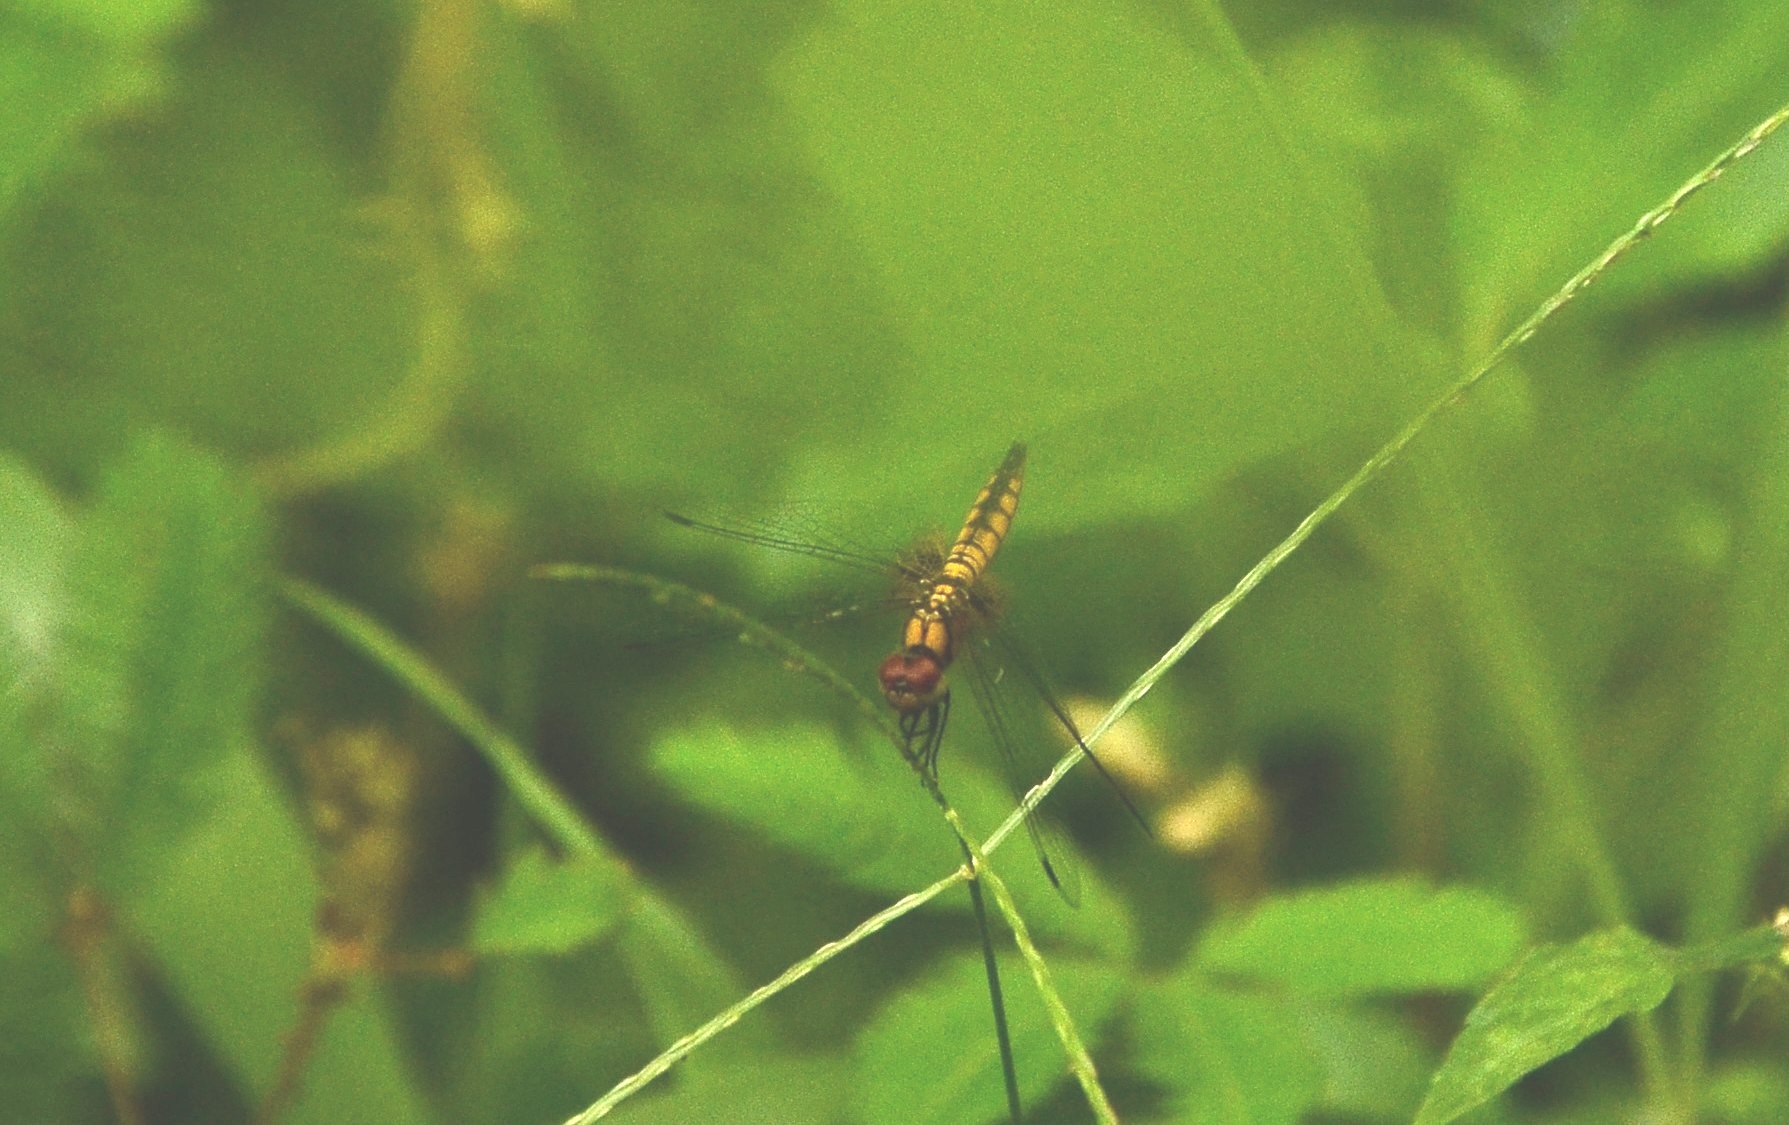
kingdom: Animalia
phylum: Arthropoda
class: Insecta
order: Odonata
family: Libellulidae
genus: Aethriamanta
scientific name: Aethriamanta brevipennis
